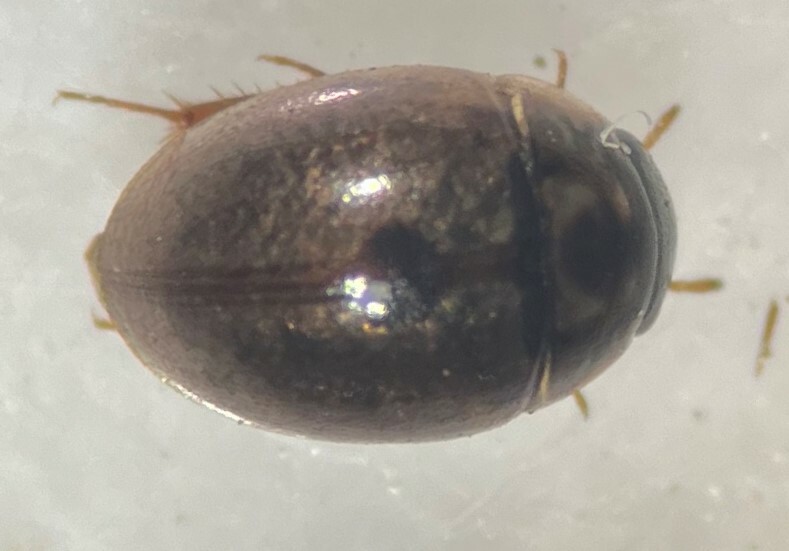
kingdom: Animalia
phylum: Arthropoda
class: Insecta
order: Coleoptera
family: Hydrophilidae
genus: Anacaena
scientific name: Anacaena signaticollis
